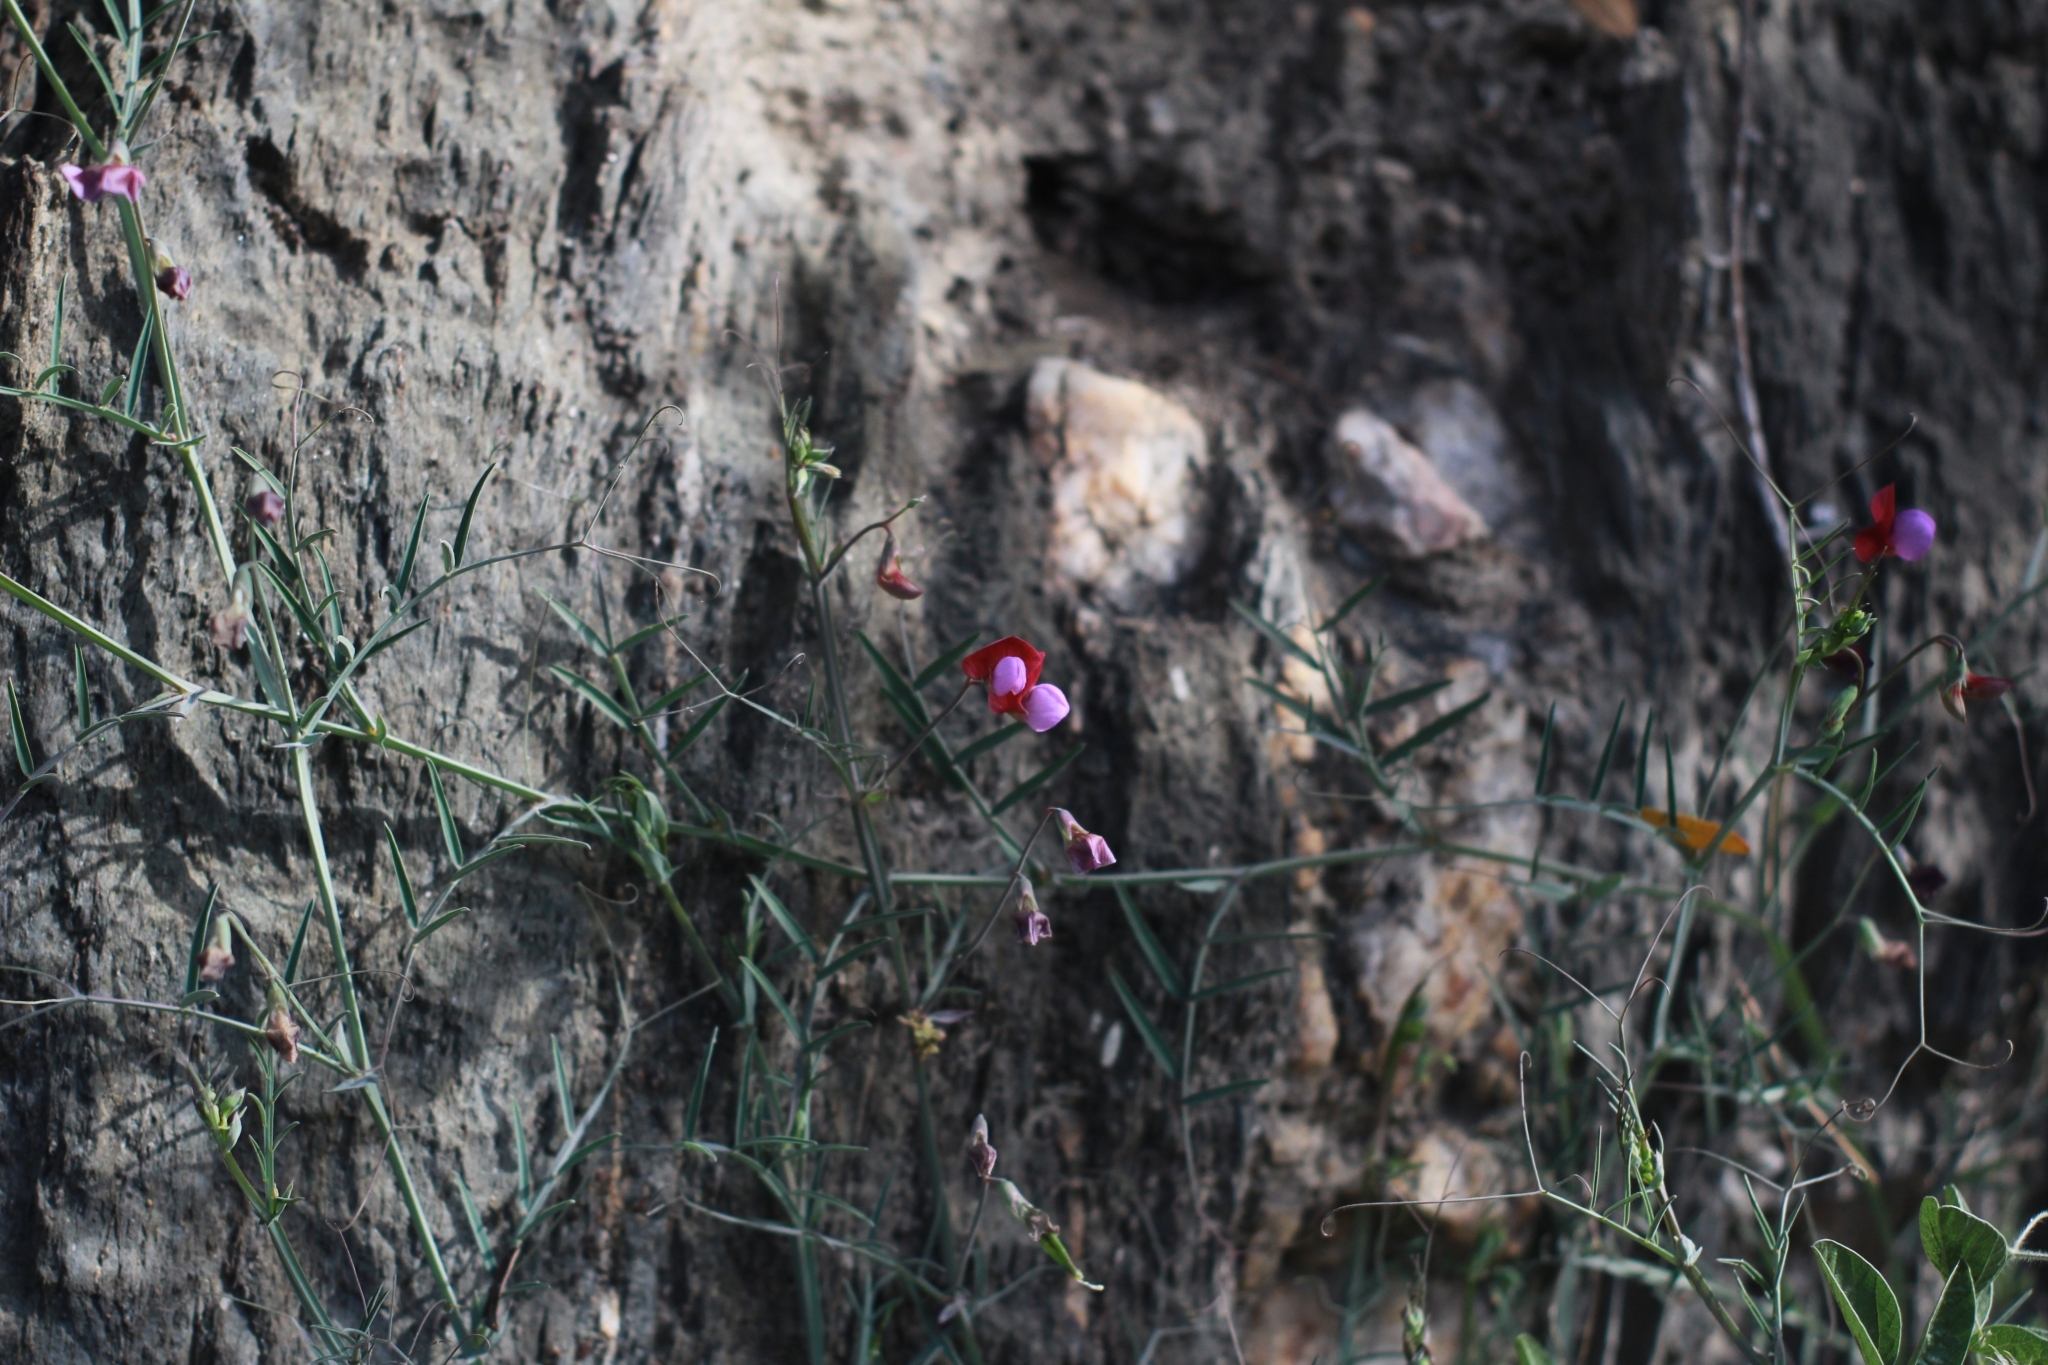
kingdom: Plantae
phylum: Tracheophyta
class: Magnoliopsida
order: Fabales
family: Fabaceae
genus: Lathyrus
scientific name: Lathyrus clymenum
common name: Spanish vetchling
